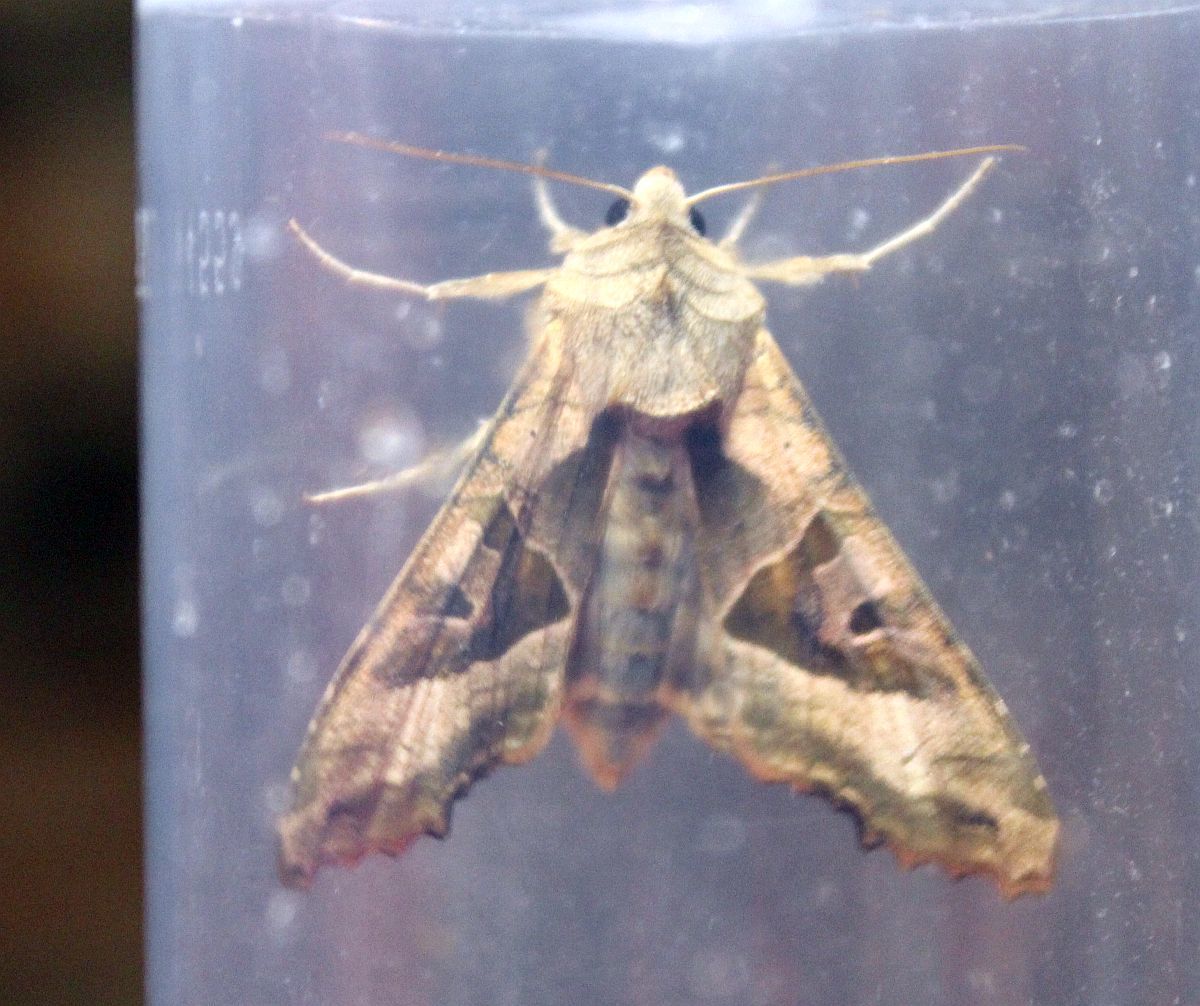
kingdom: Animalia
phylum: Arthropoda
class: Insecta
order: Lepidoptera
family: Noctuidae
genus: Phlogophora
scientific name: Phlogophora meticulosa
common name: Angle shades
